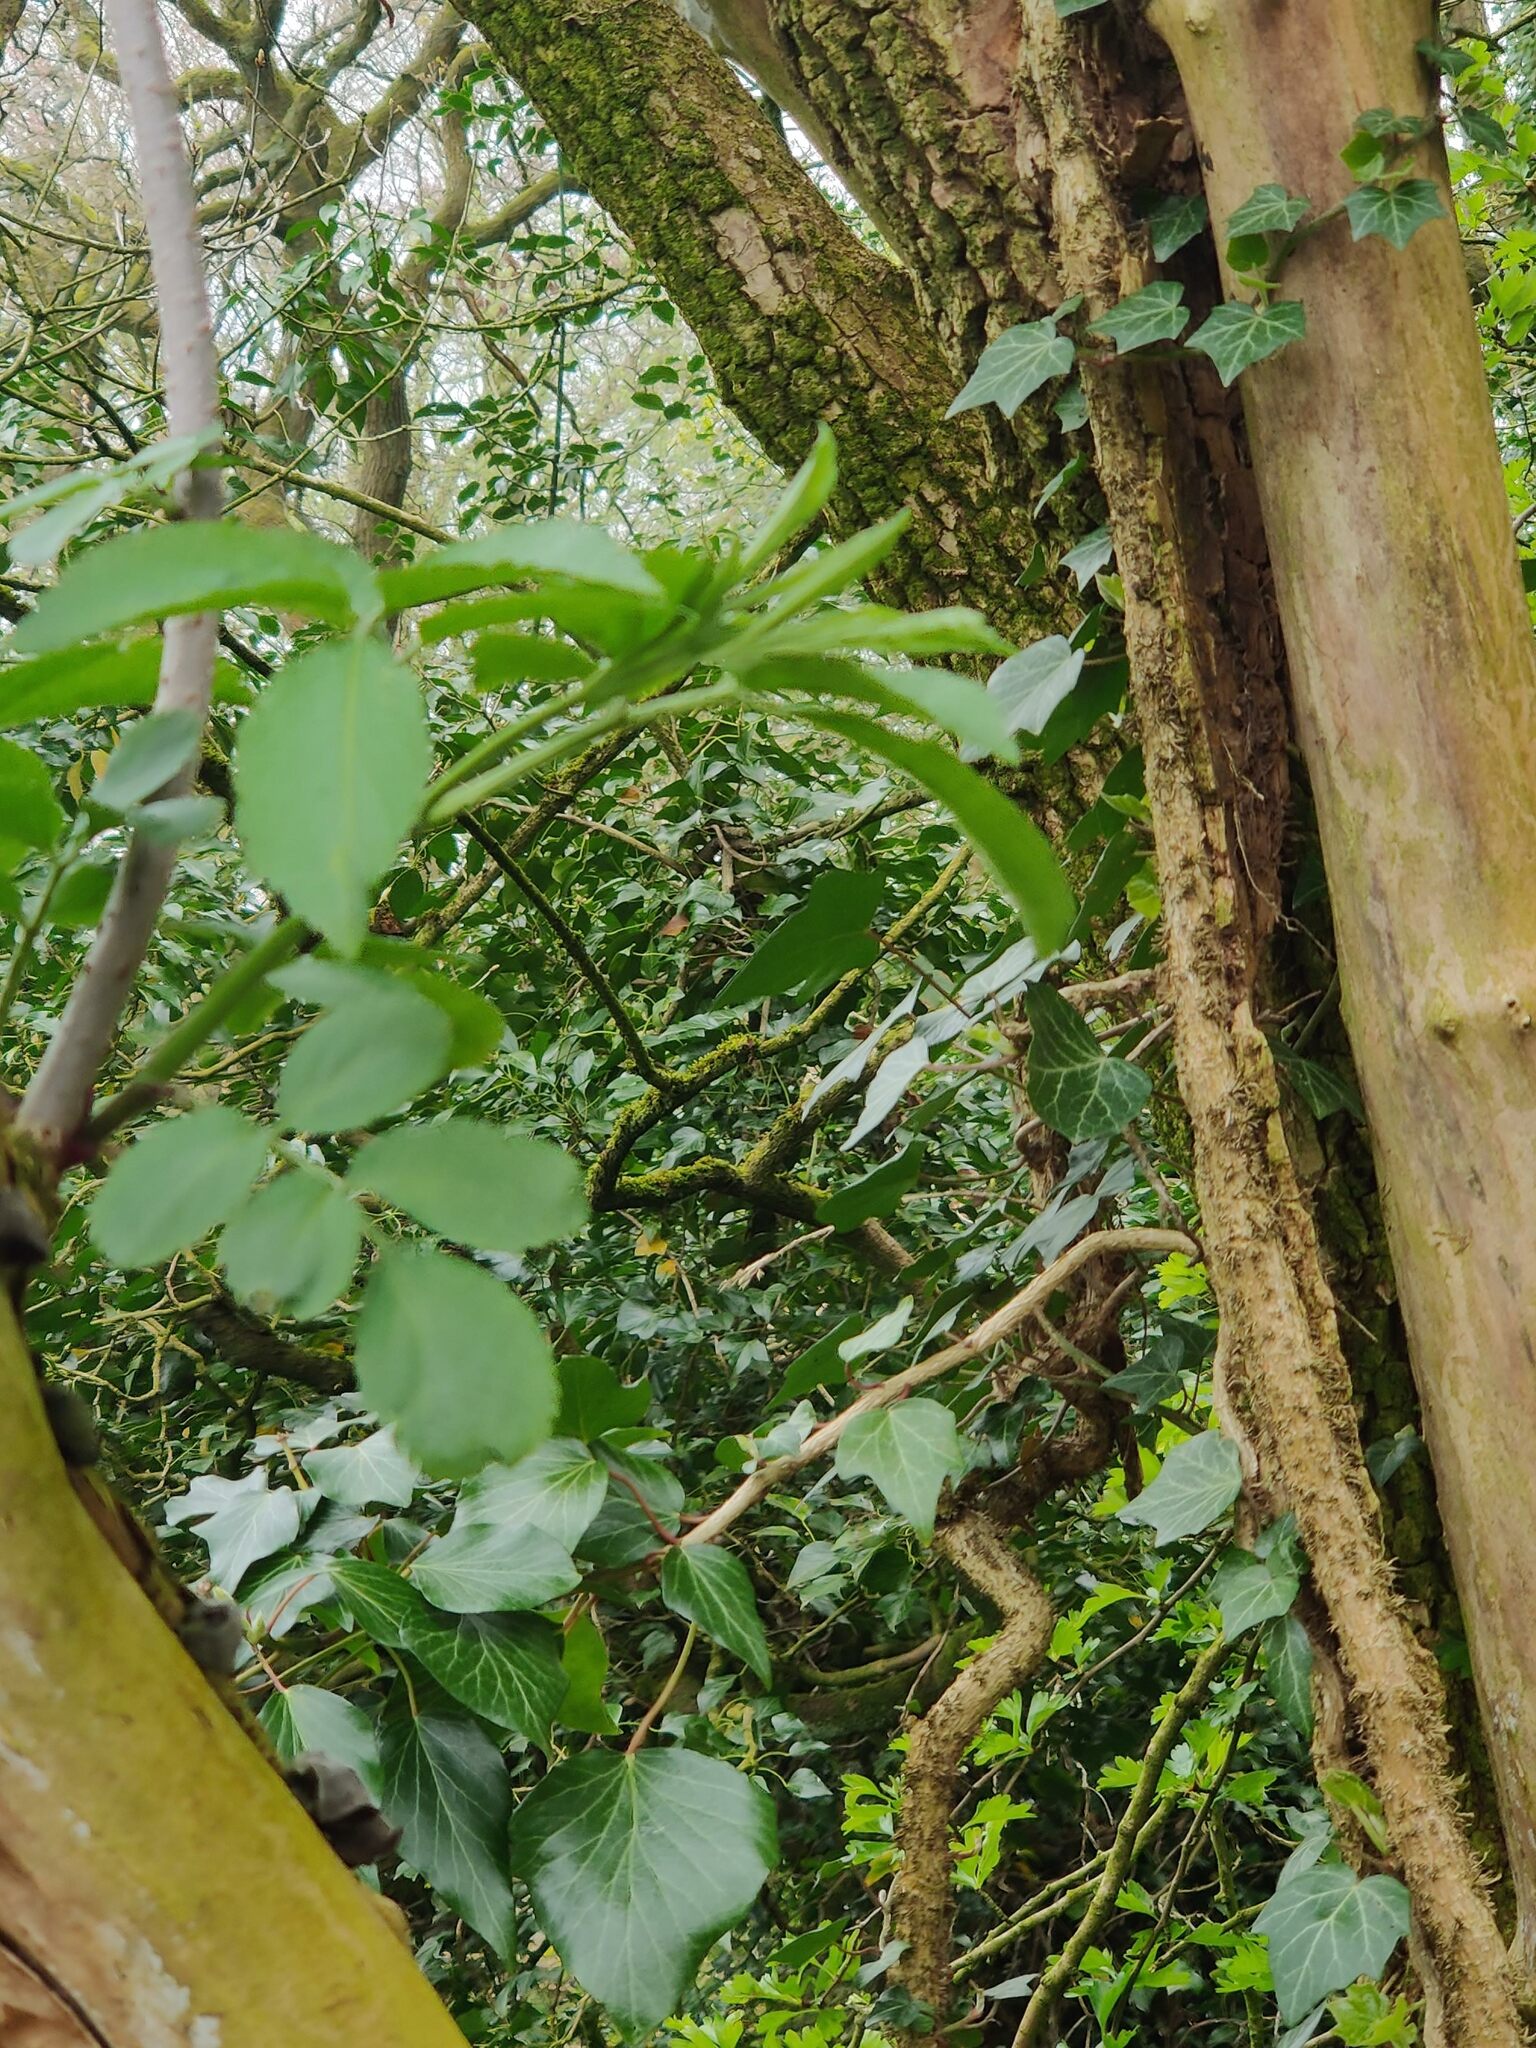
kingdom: Plantae
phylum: Tracheophyta
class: Magnoliopsida
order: Dipsacales
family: Viburnaceae
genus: Sambucus
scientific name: Sambucus nigra
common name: Elder
